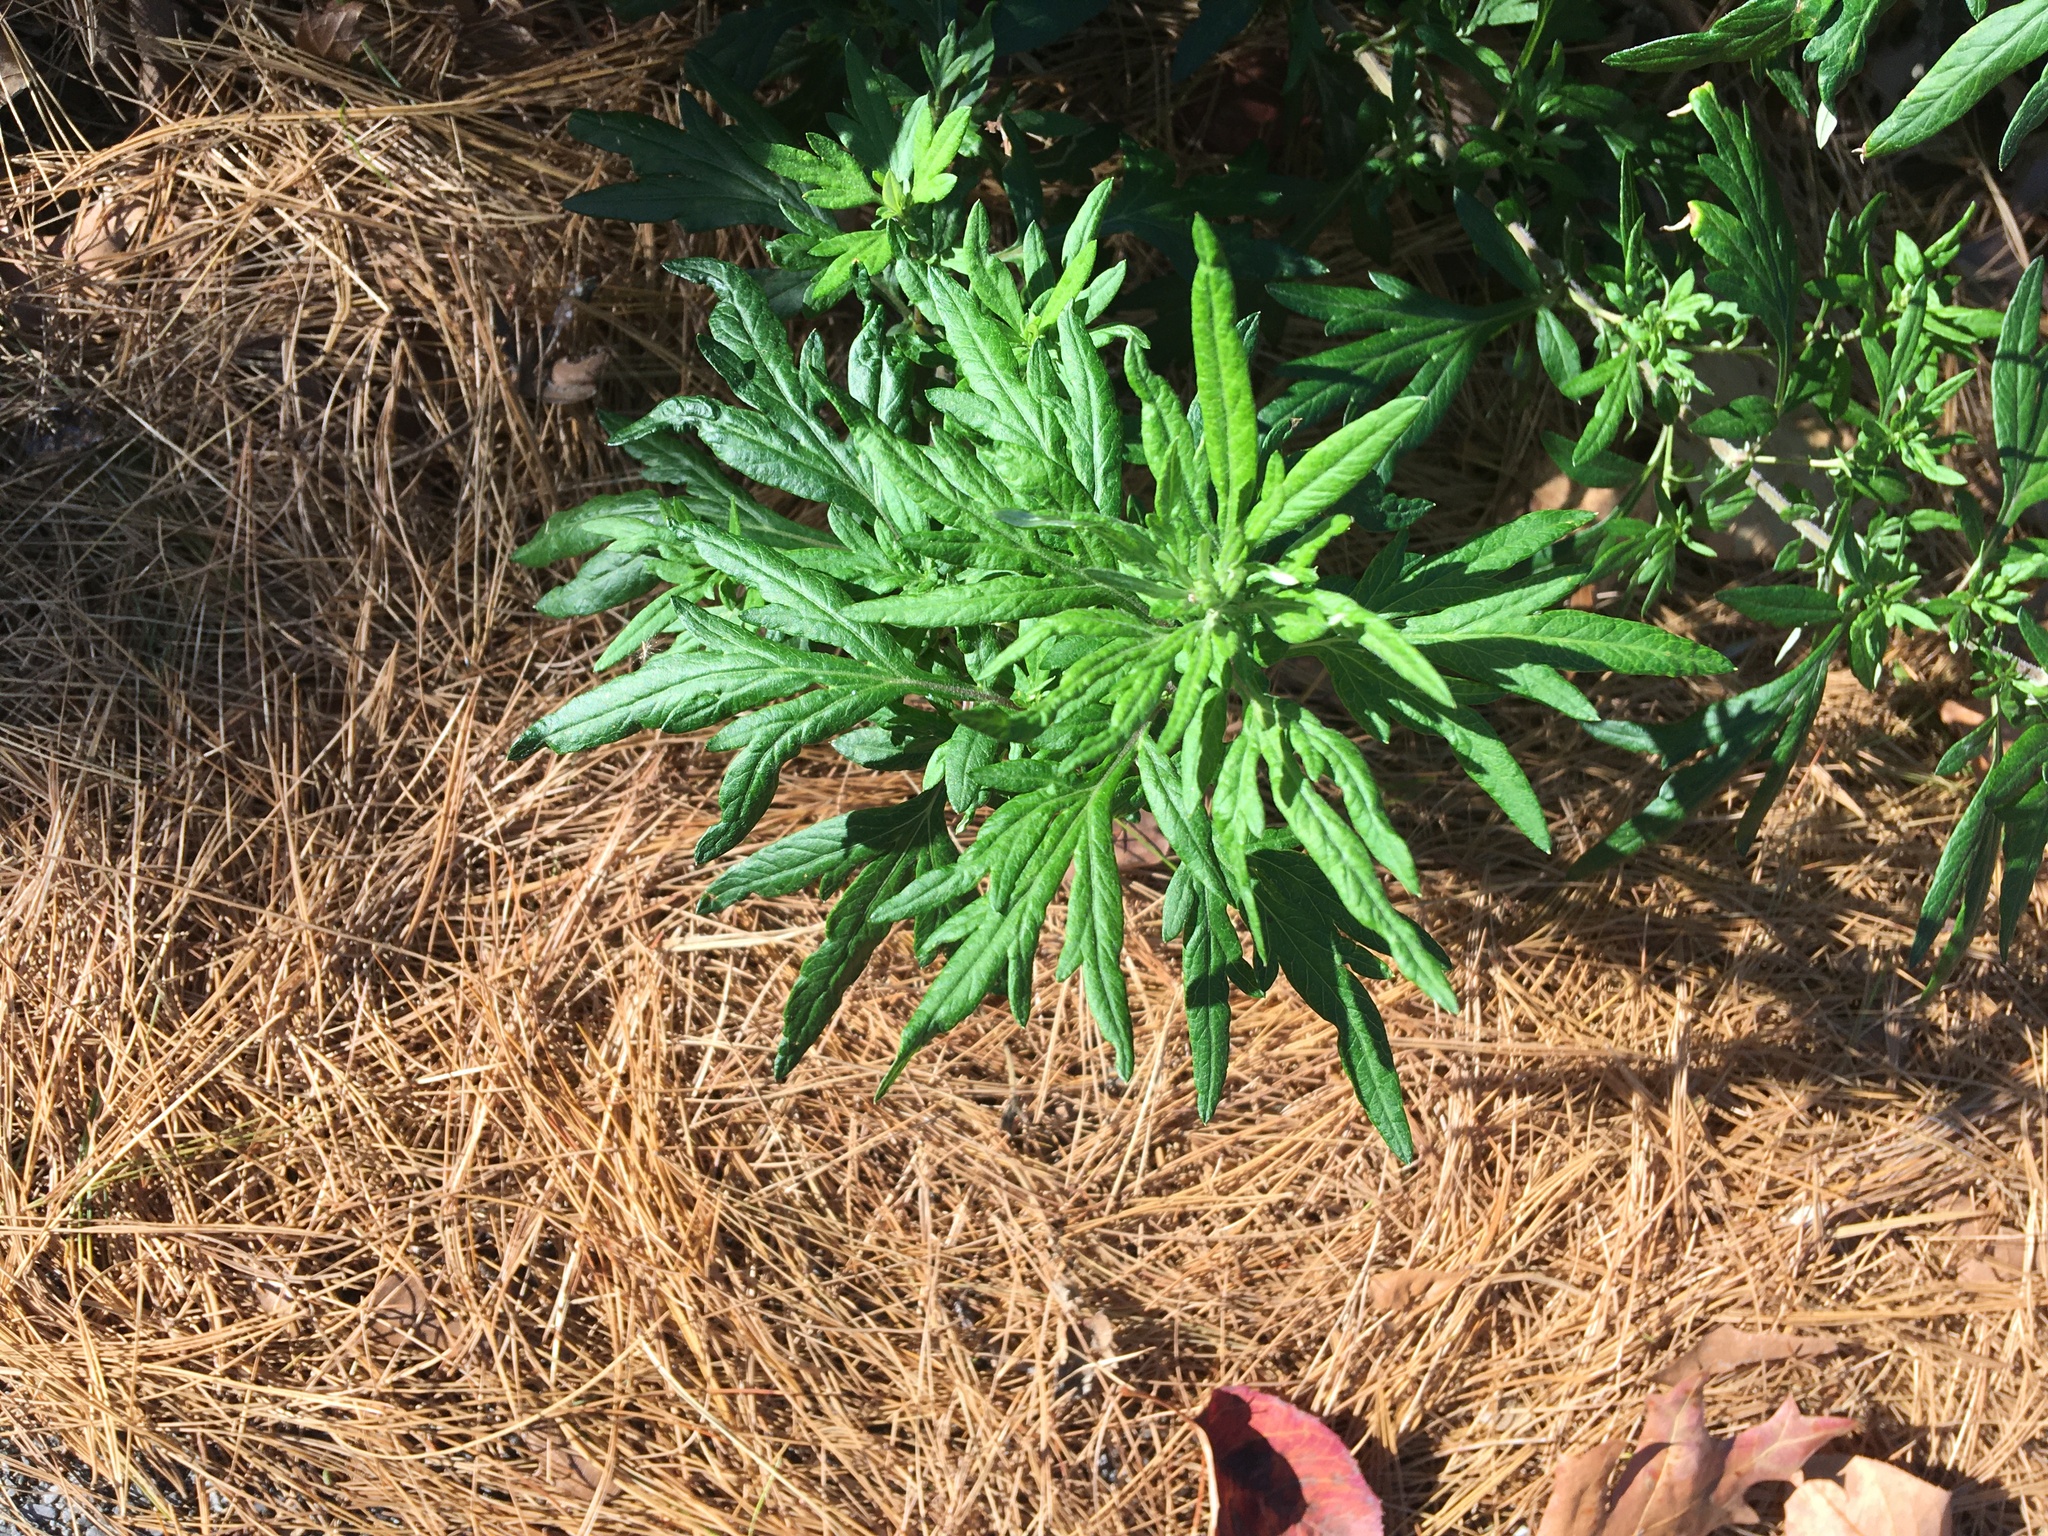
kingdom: Plantae
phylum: Tracheophyta
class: Magnoliopsida
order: Asterales
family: Asteraceae
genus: Artemisia
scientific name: Artemisia vulgaris
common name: Mugwort
